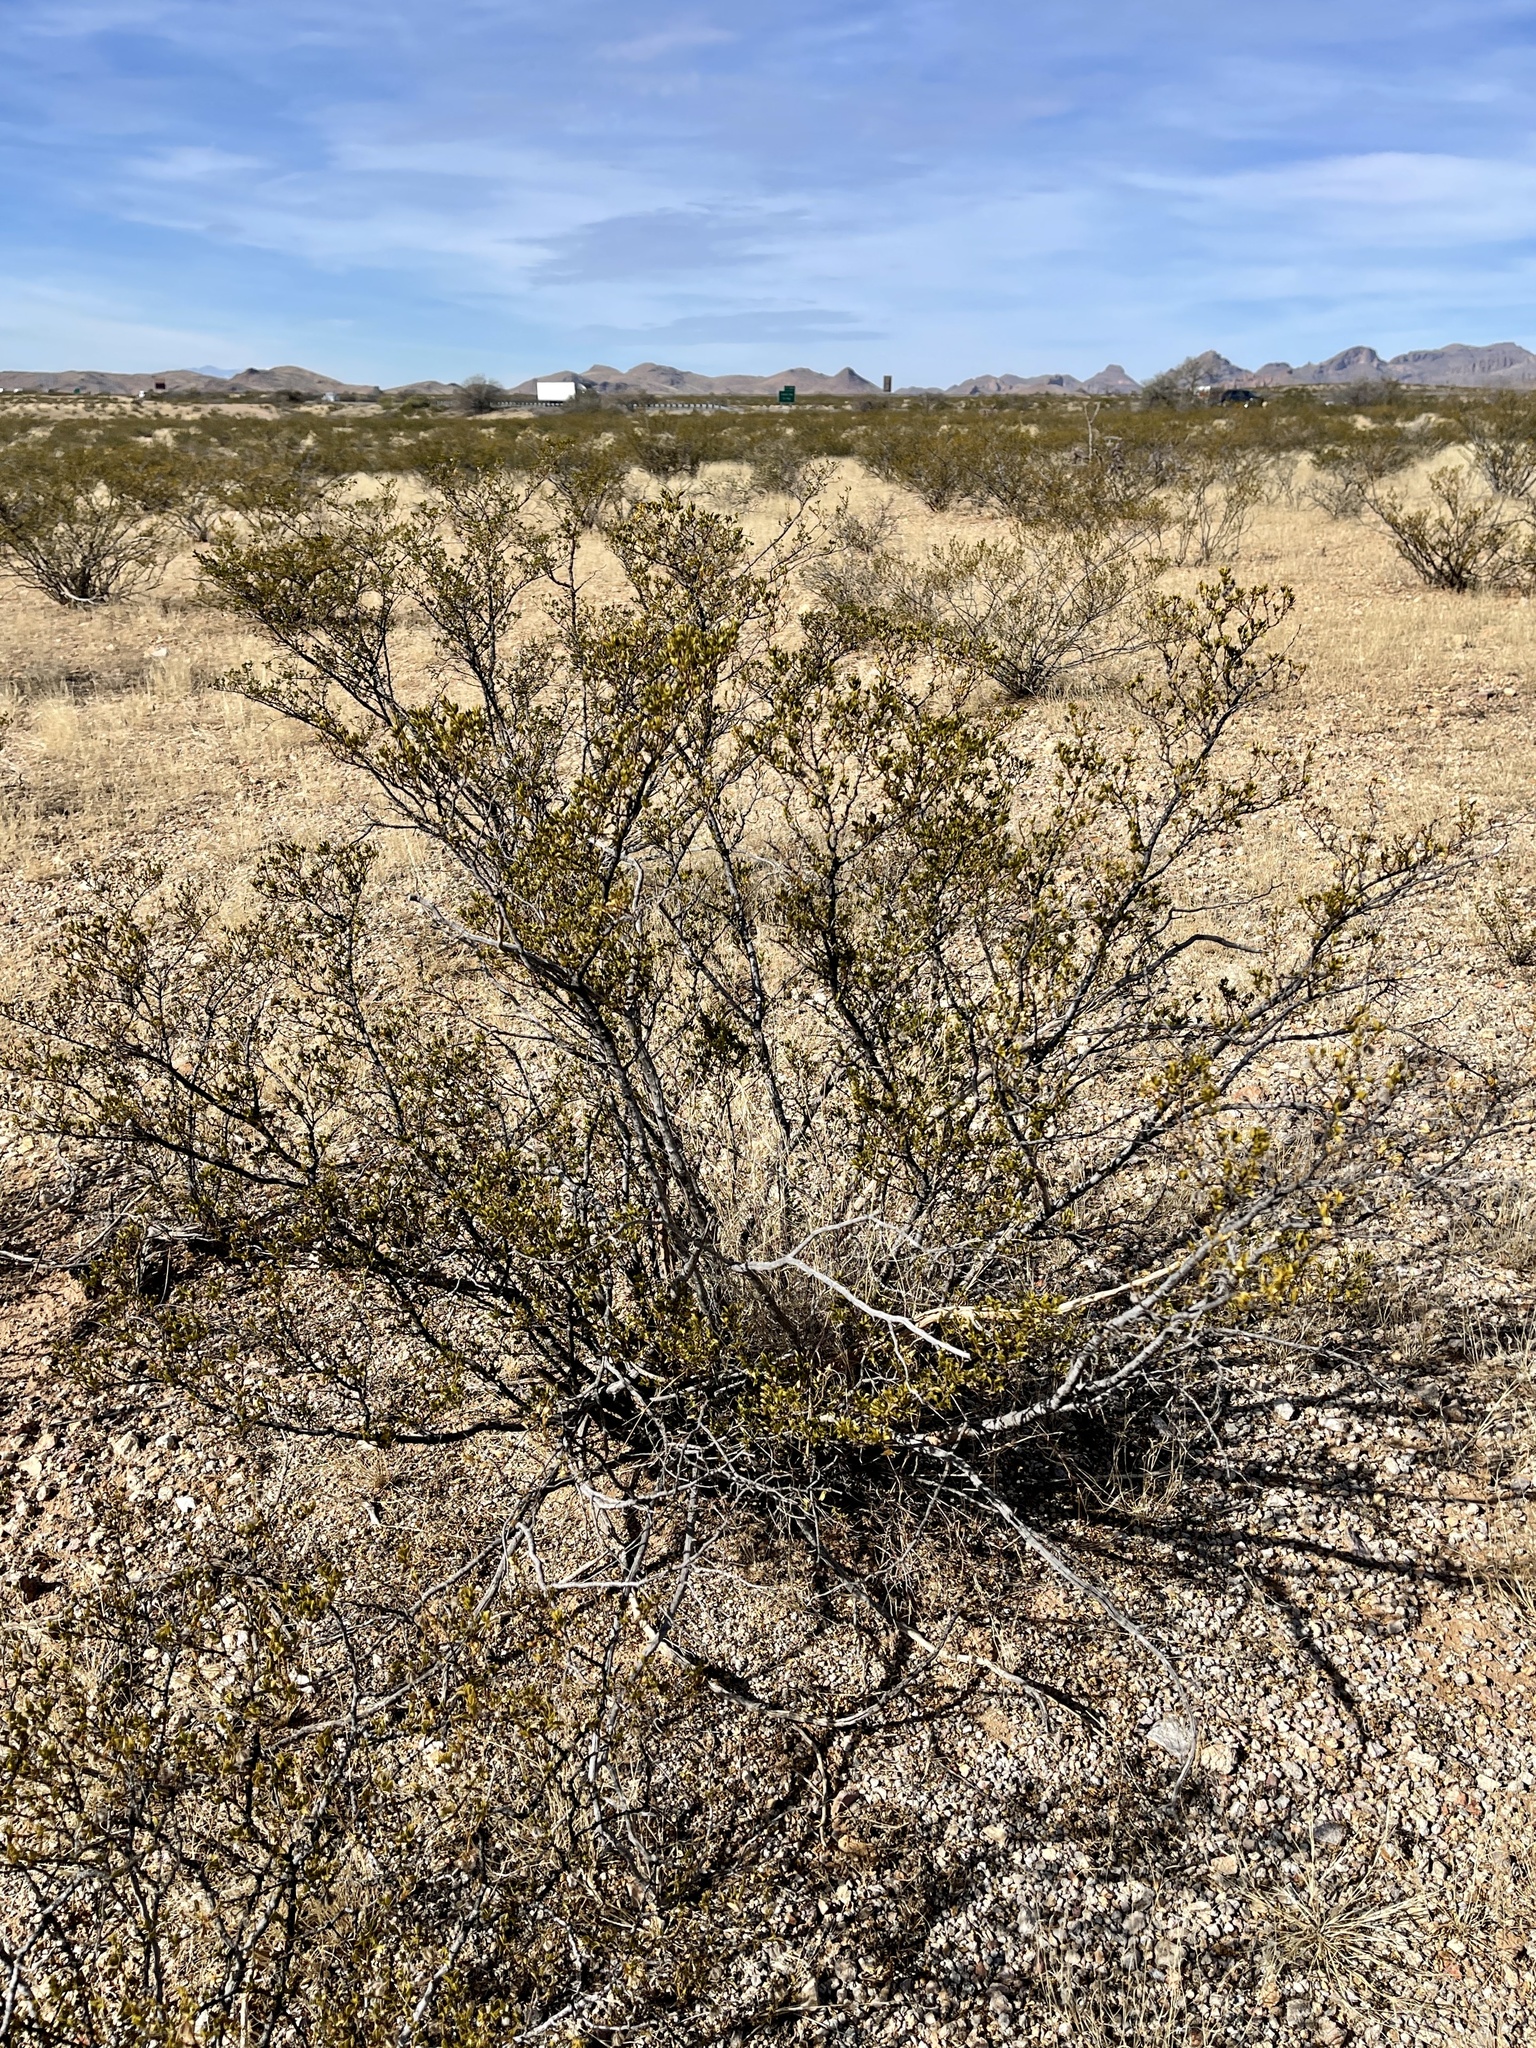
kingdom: Plantae
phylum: Tracheophyta
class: Magnoliopsida
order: Zygophyllales
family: Zygophyllaceae
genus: Larrea
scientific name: Larrea tridentata
